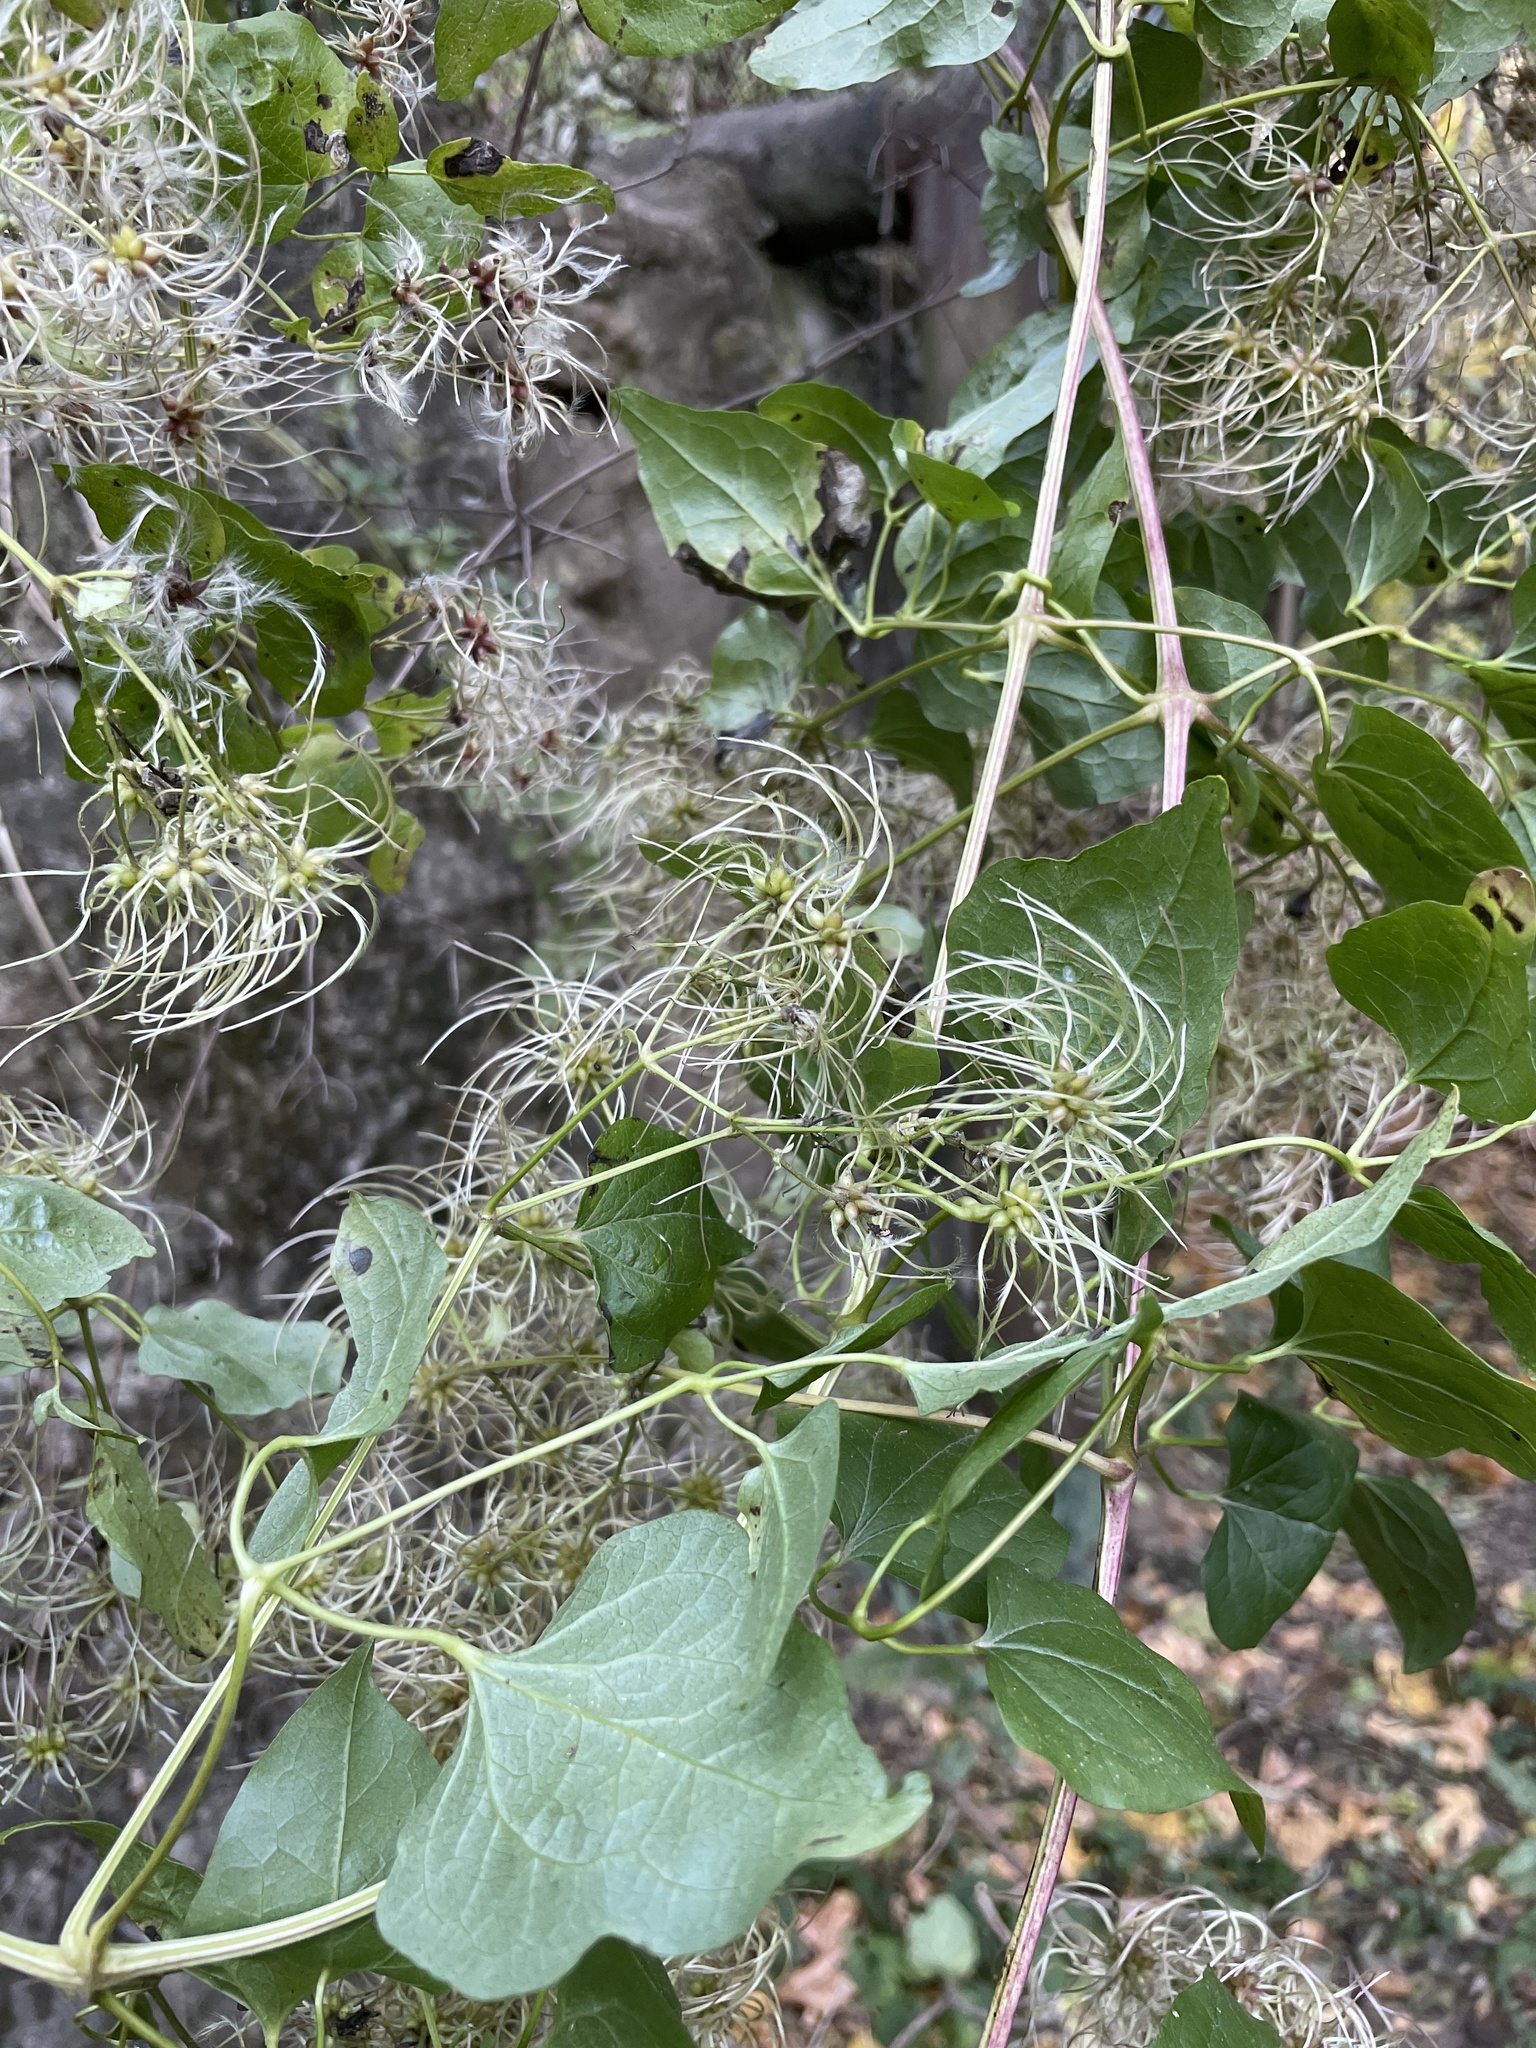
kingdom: Plantae
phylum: Tracheophyta
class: Magnoliopsida
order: Ranunculales
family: Ranunculaceae
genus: Clematis
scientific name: Clematis vitalba
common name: Evergreen clematis
